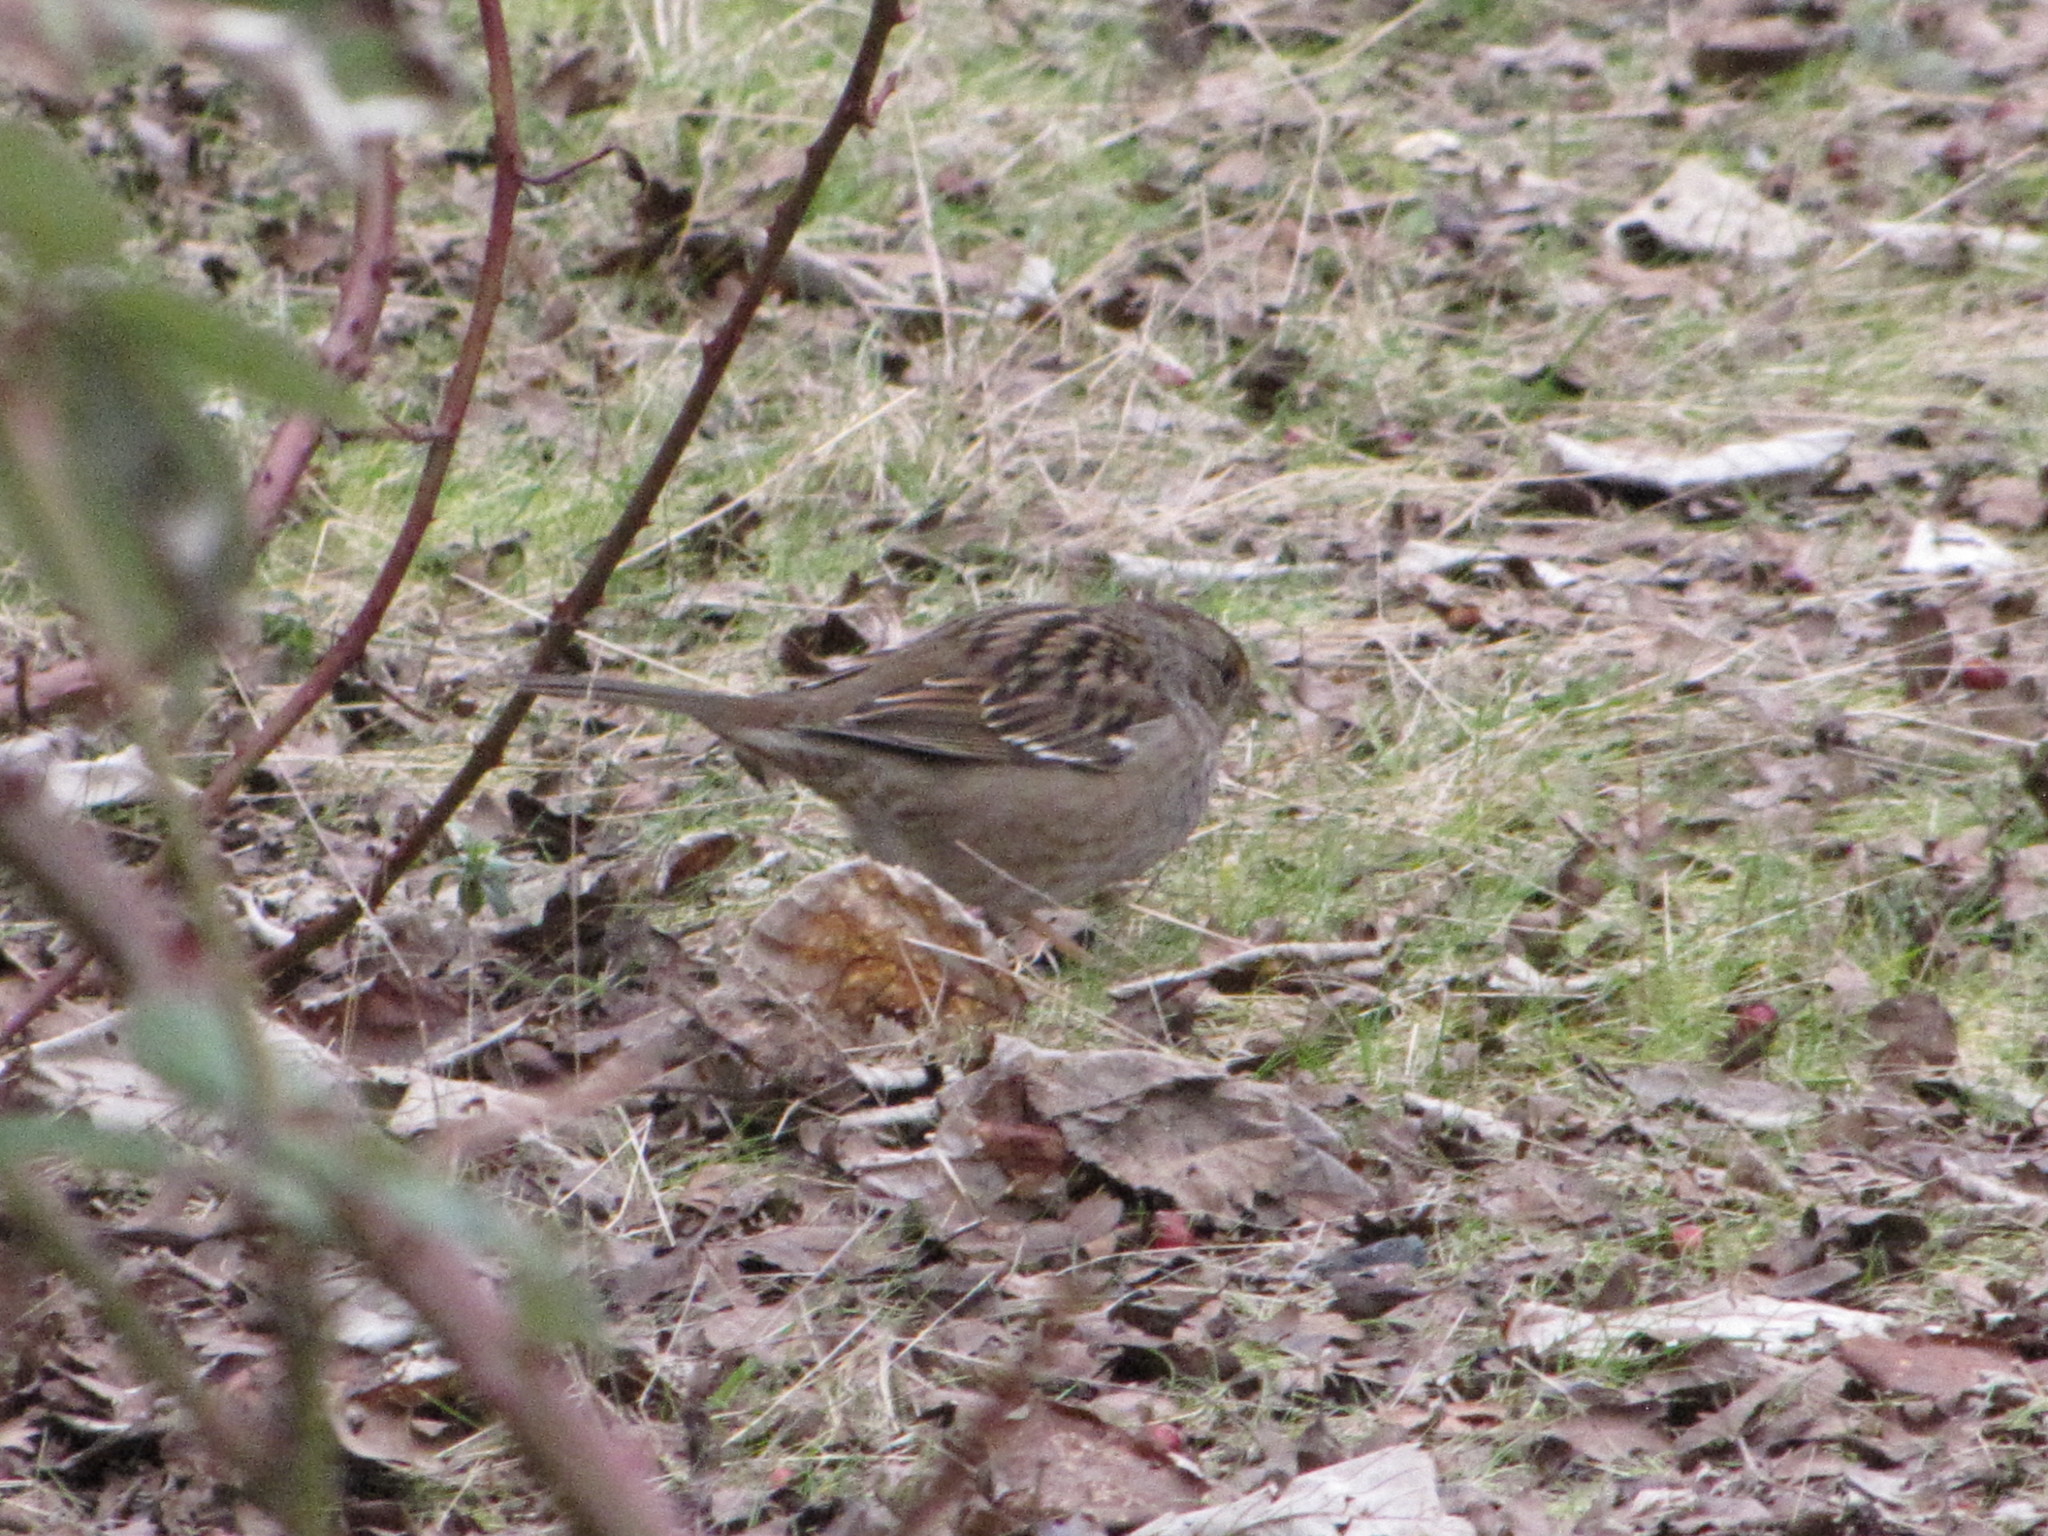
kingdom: Animalia
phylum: Chordata
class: Aves
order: Passeriformes
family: Passerellidae
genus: Zonotrichia
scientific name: Zonotrichia atricapilla
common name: Golden-crowned sparrow
